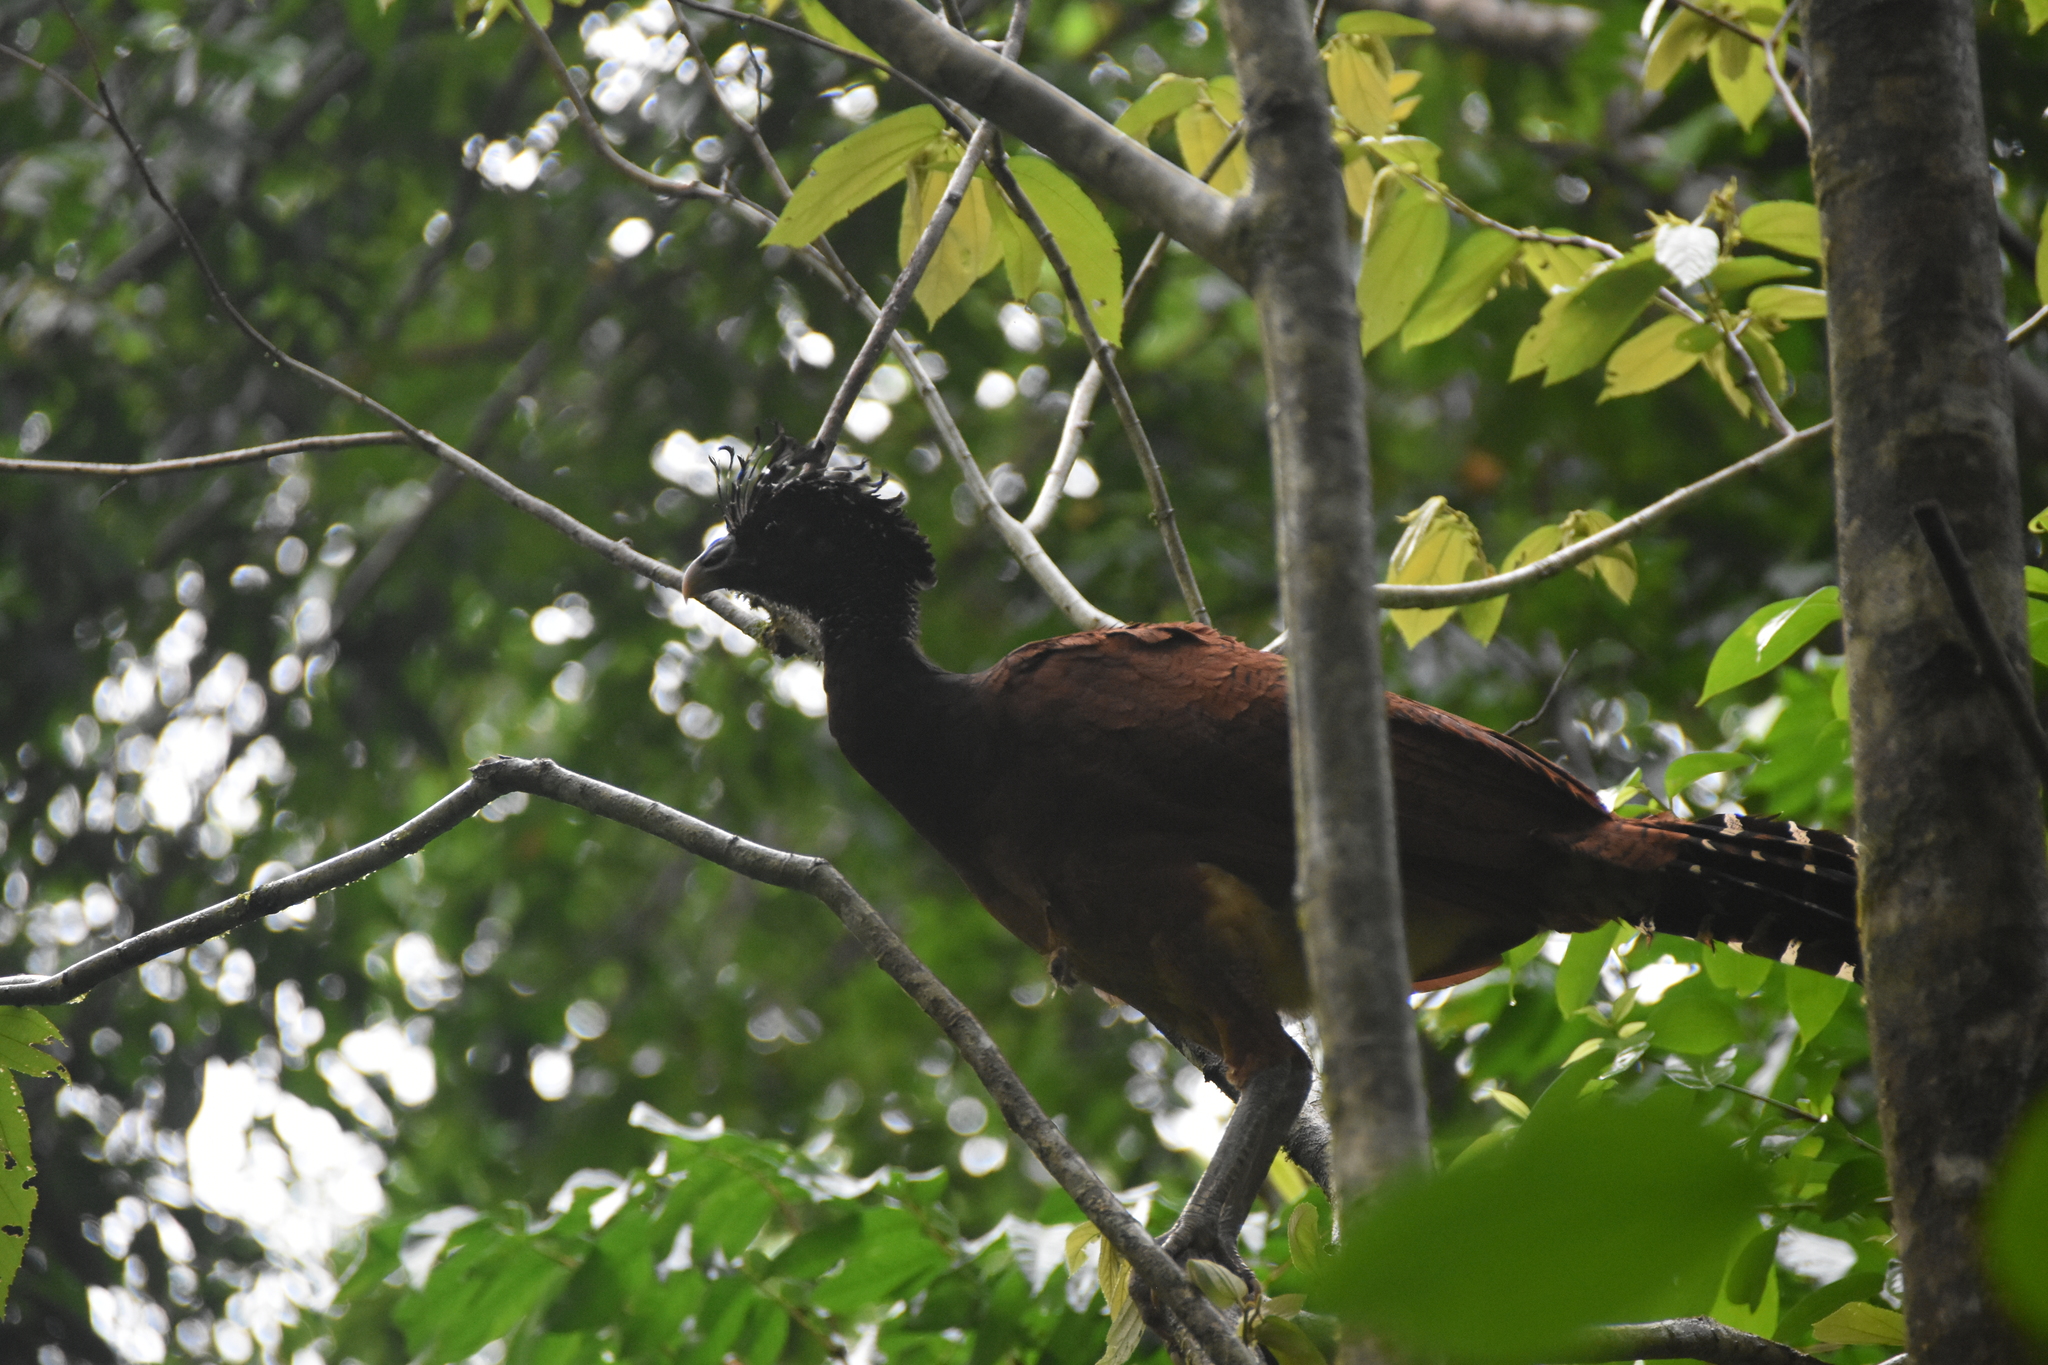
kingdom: Animalia
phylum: Chordata
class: Aves
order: Galliformes
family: Cracidae
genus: Crax
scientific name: Crax rubra
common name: Great curassow
